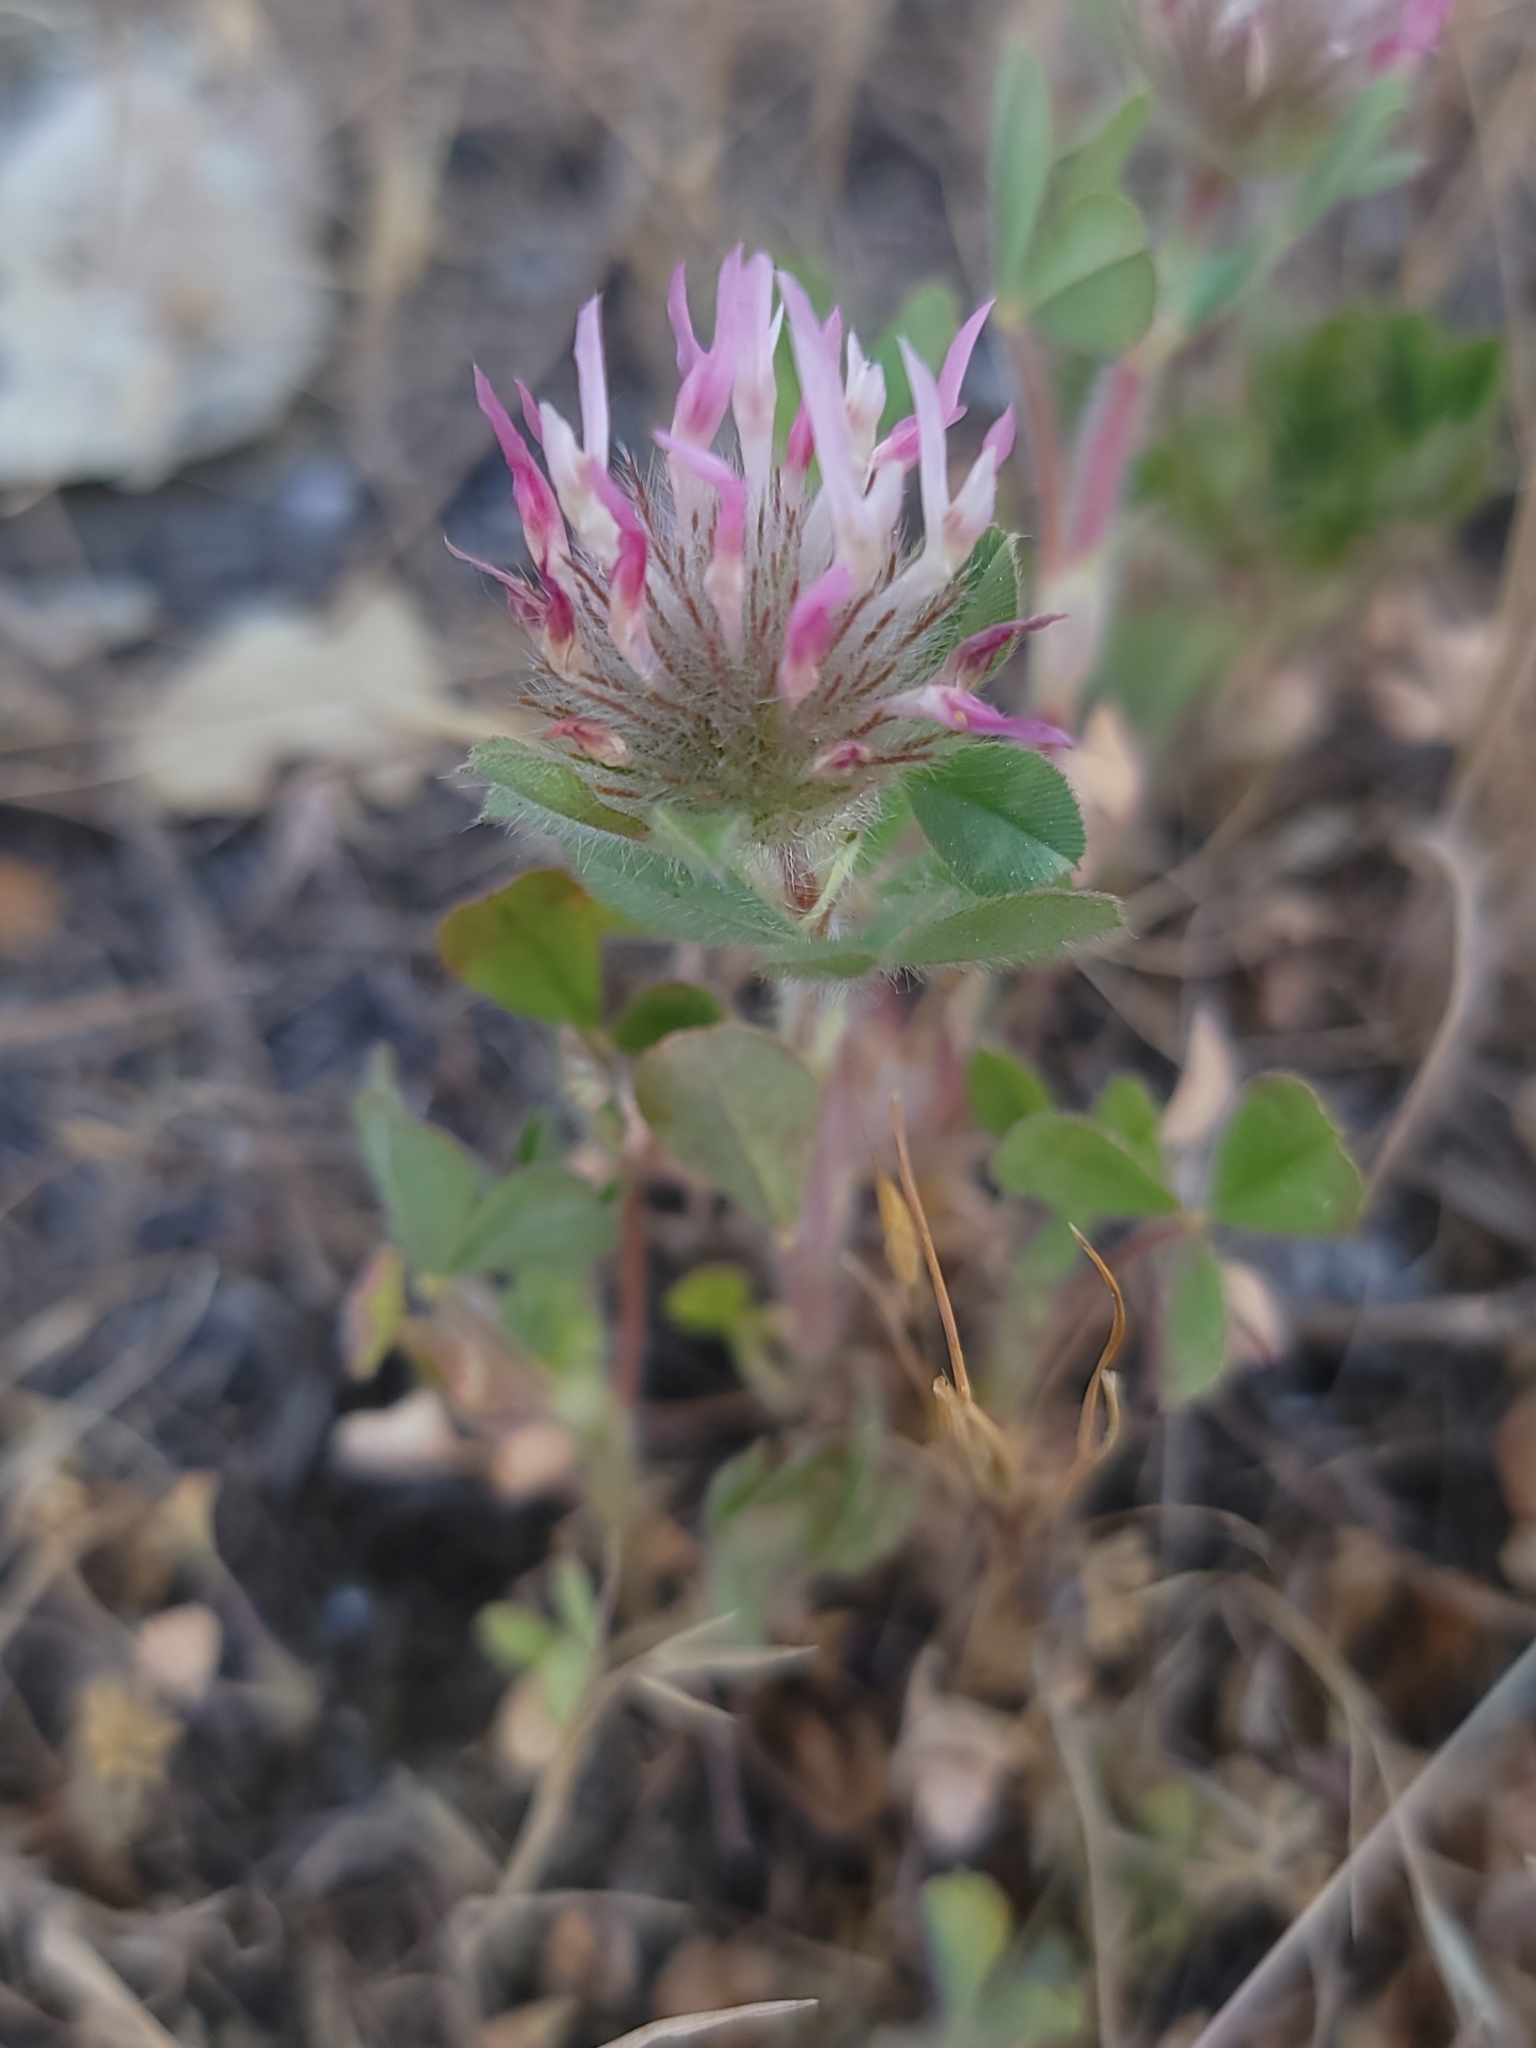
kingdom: Plantae
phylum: Tracheophyta
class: Magnoliopsida
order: Fabales
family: Fabaceae
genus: Trifolium
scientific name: Trifolium hirtum
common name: Rose clover
